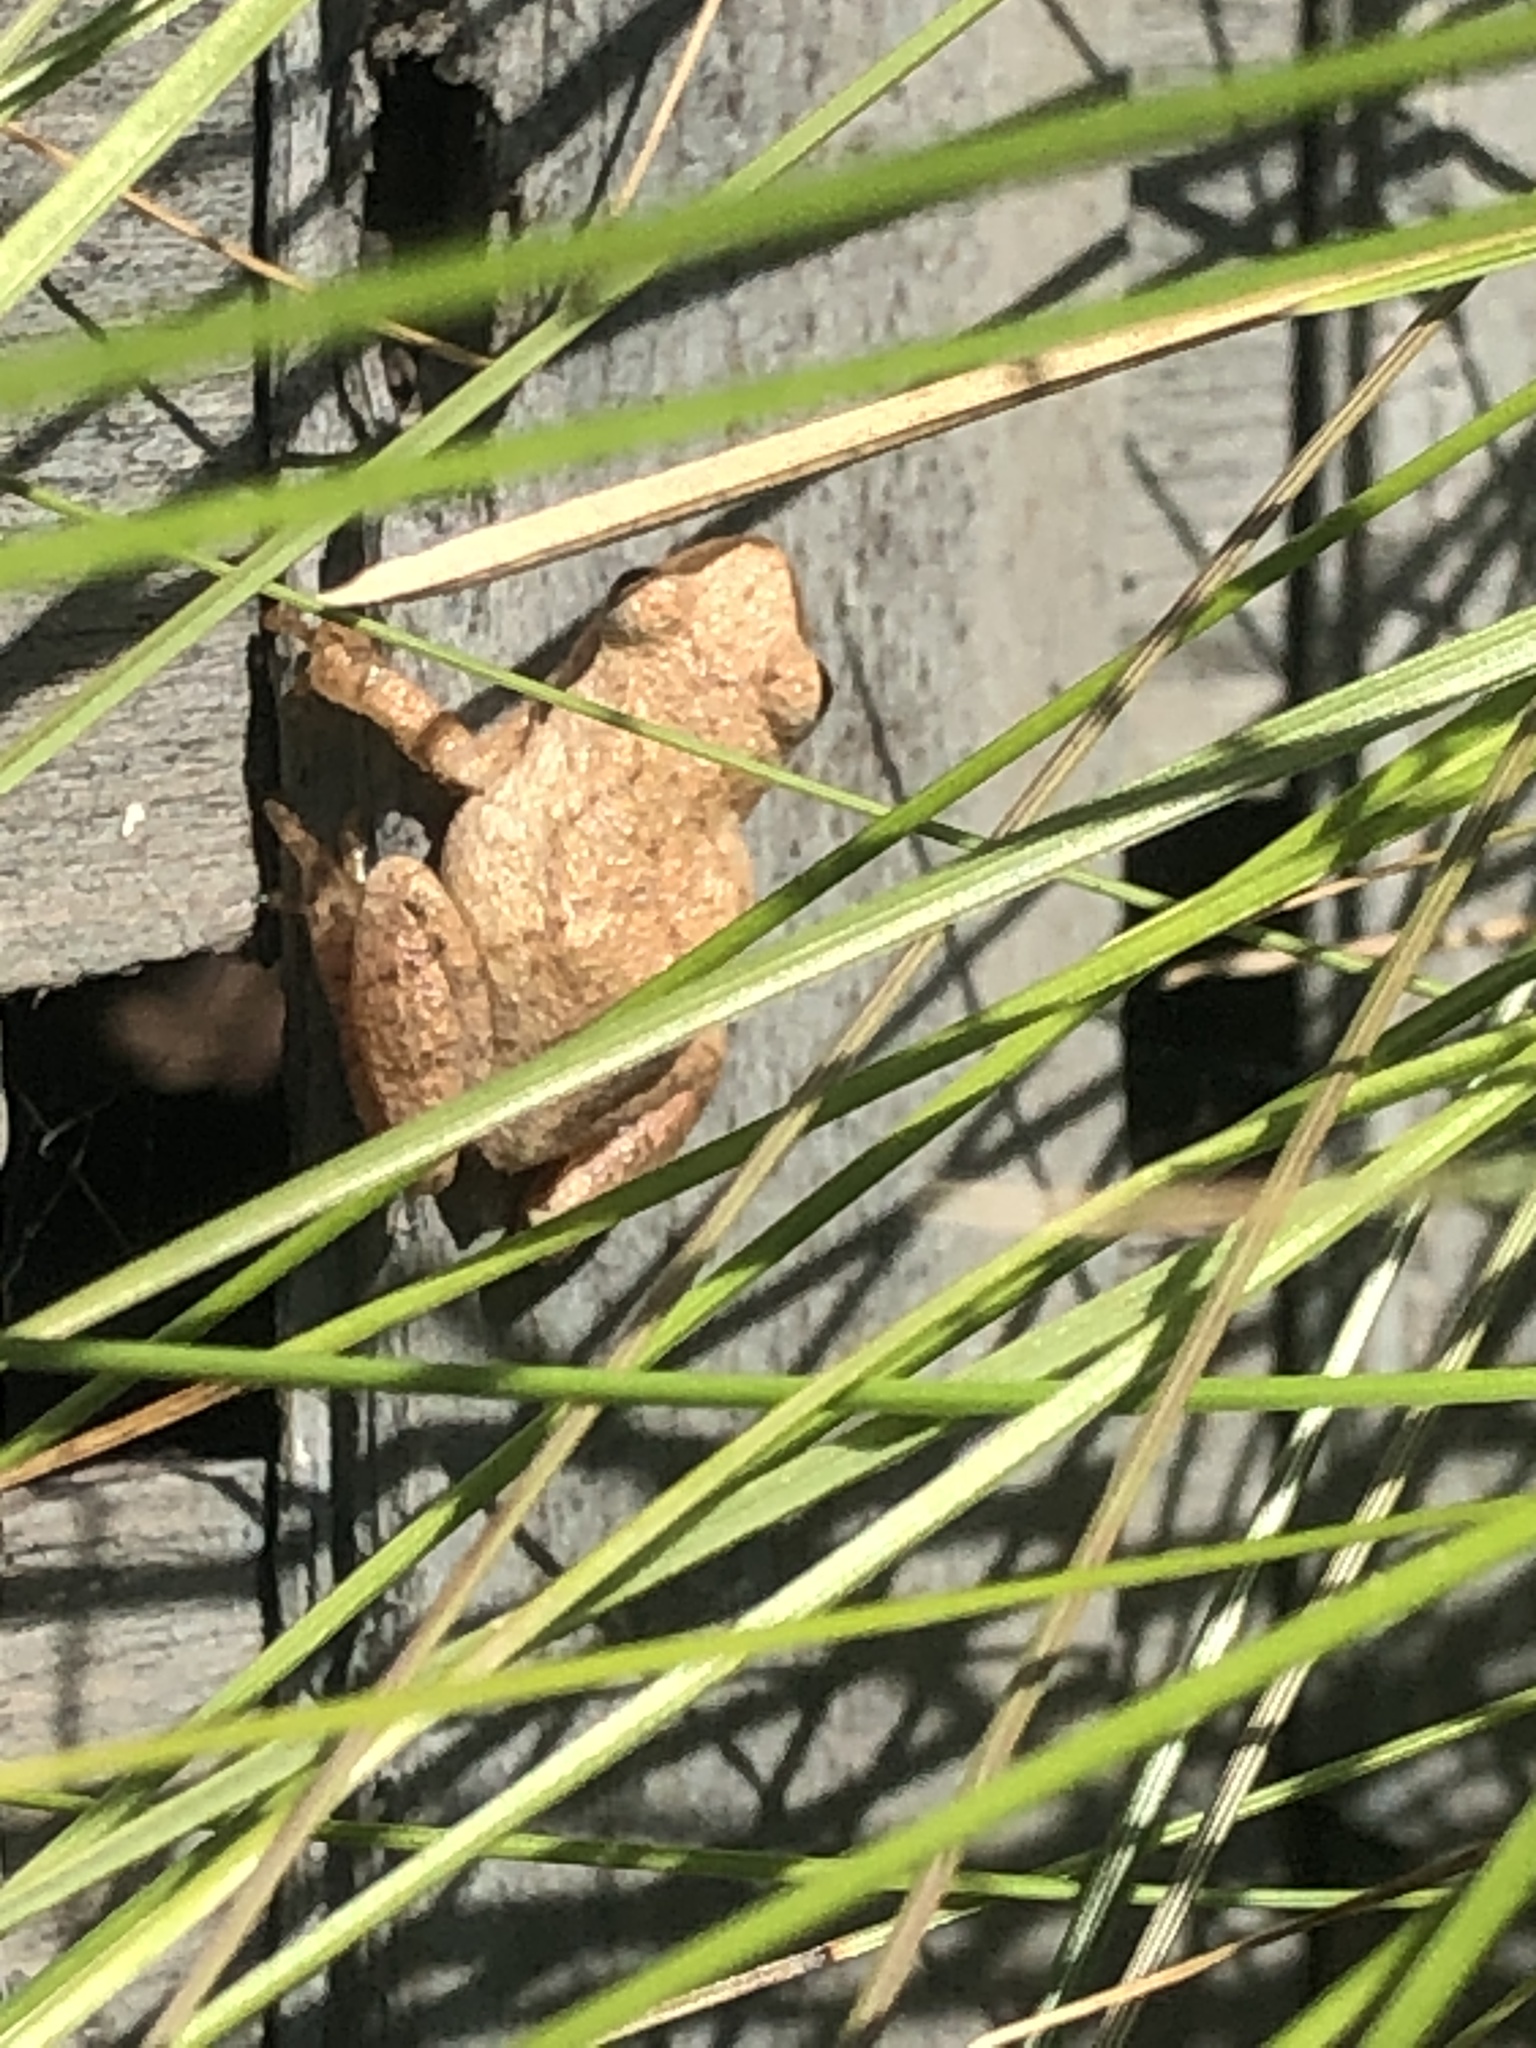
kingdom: Animalia
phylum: Chordata
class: Amphibia
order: Anura
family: Hylidae
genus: Pseudacris
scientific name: Pseudacris crucifer
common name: Spring peeper
